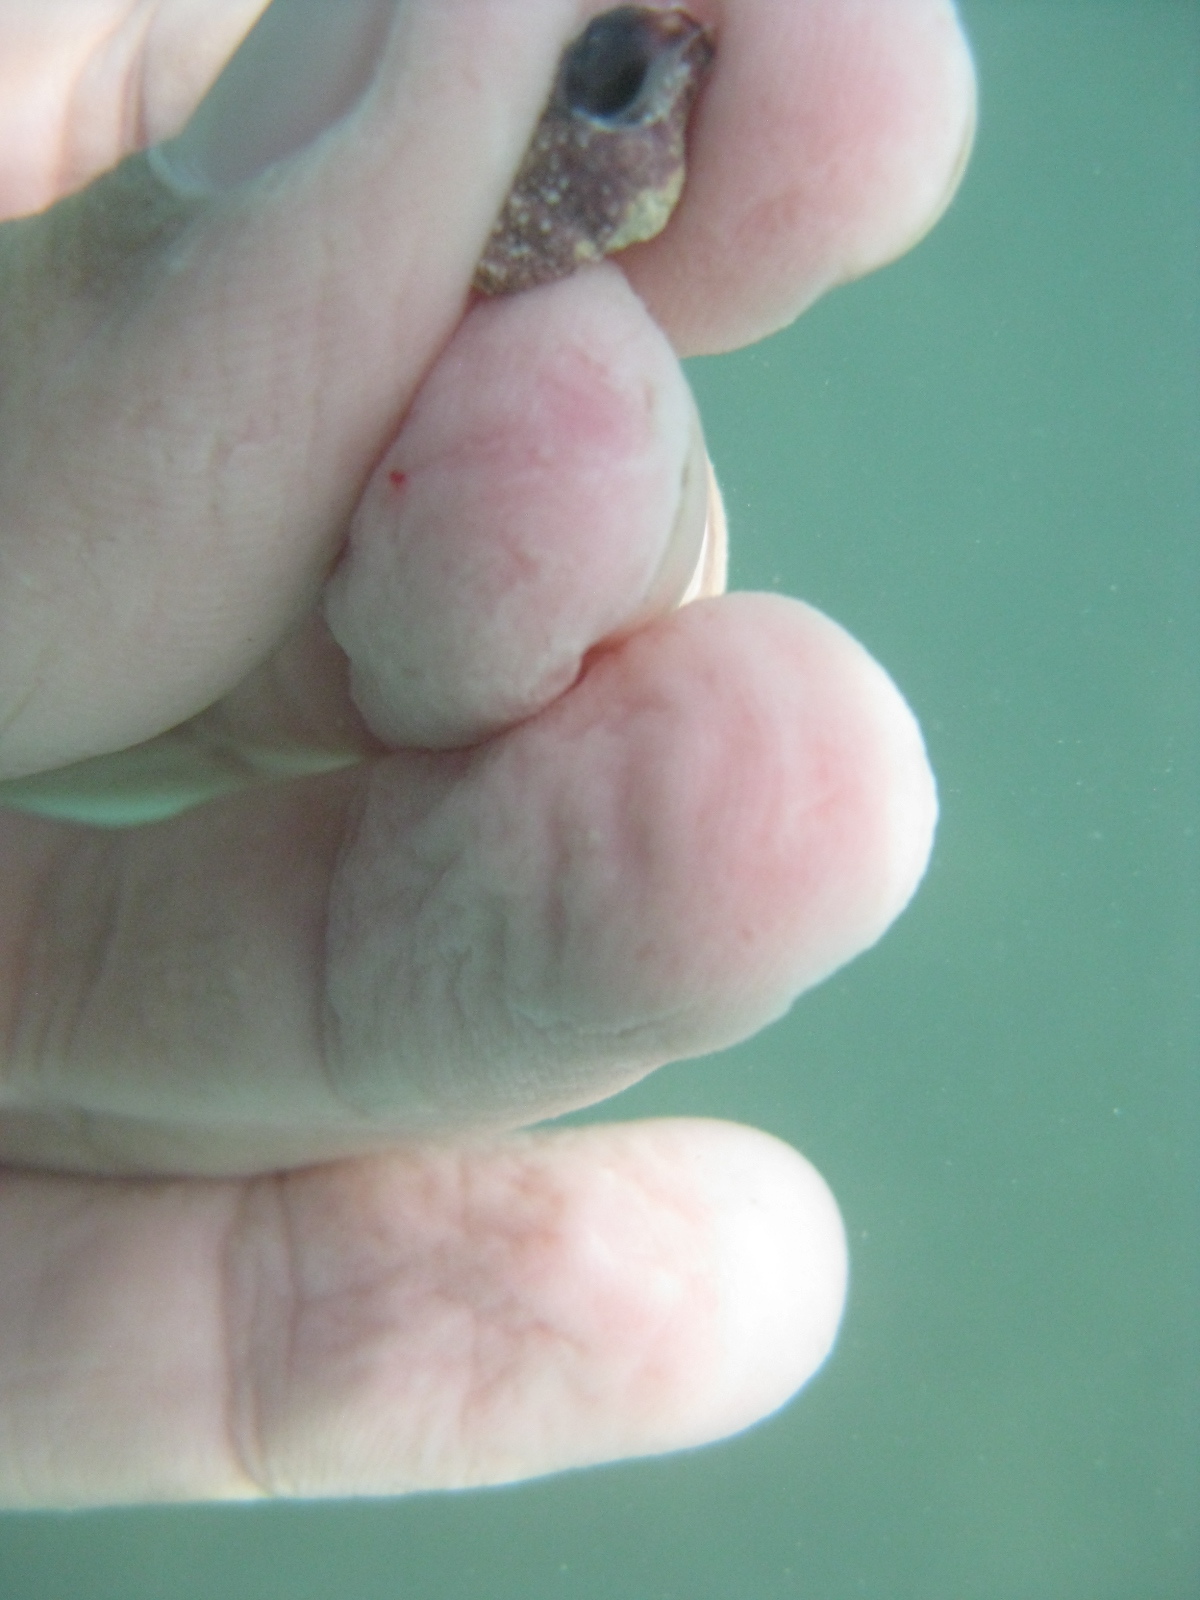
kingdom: Animalia
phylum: Mollusca
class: Gastropoda
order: Neogastropoda
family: Fasciolariidae
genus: Taron
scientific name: Taron dubius
